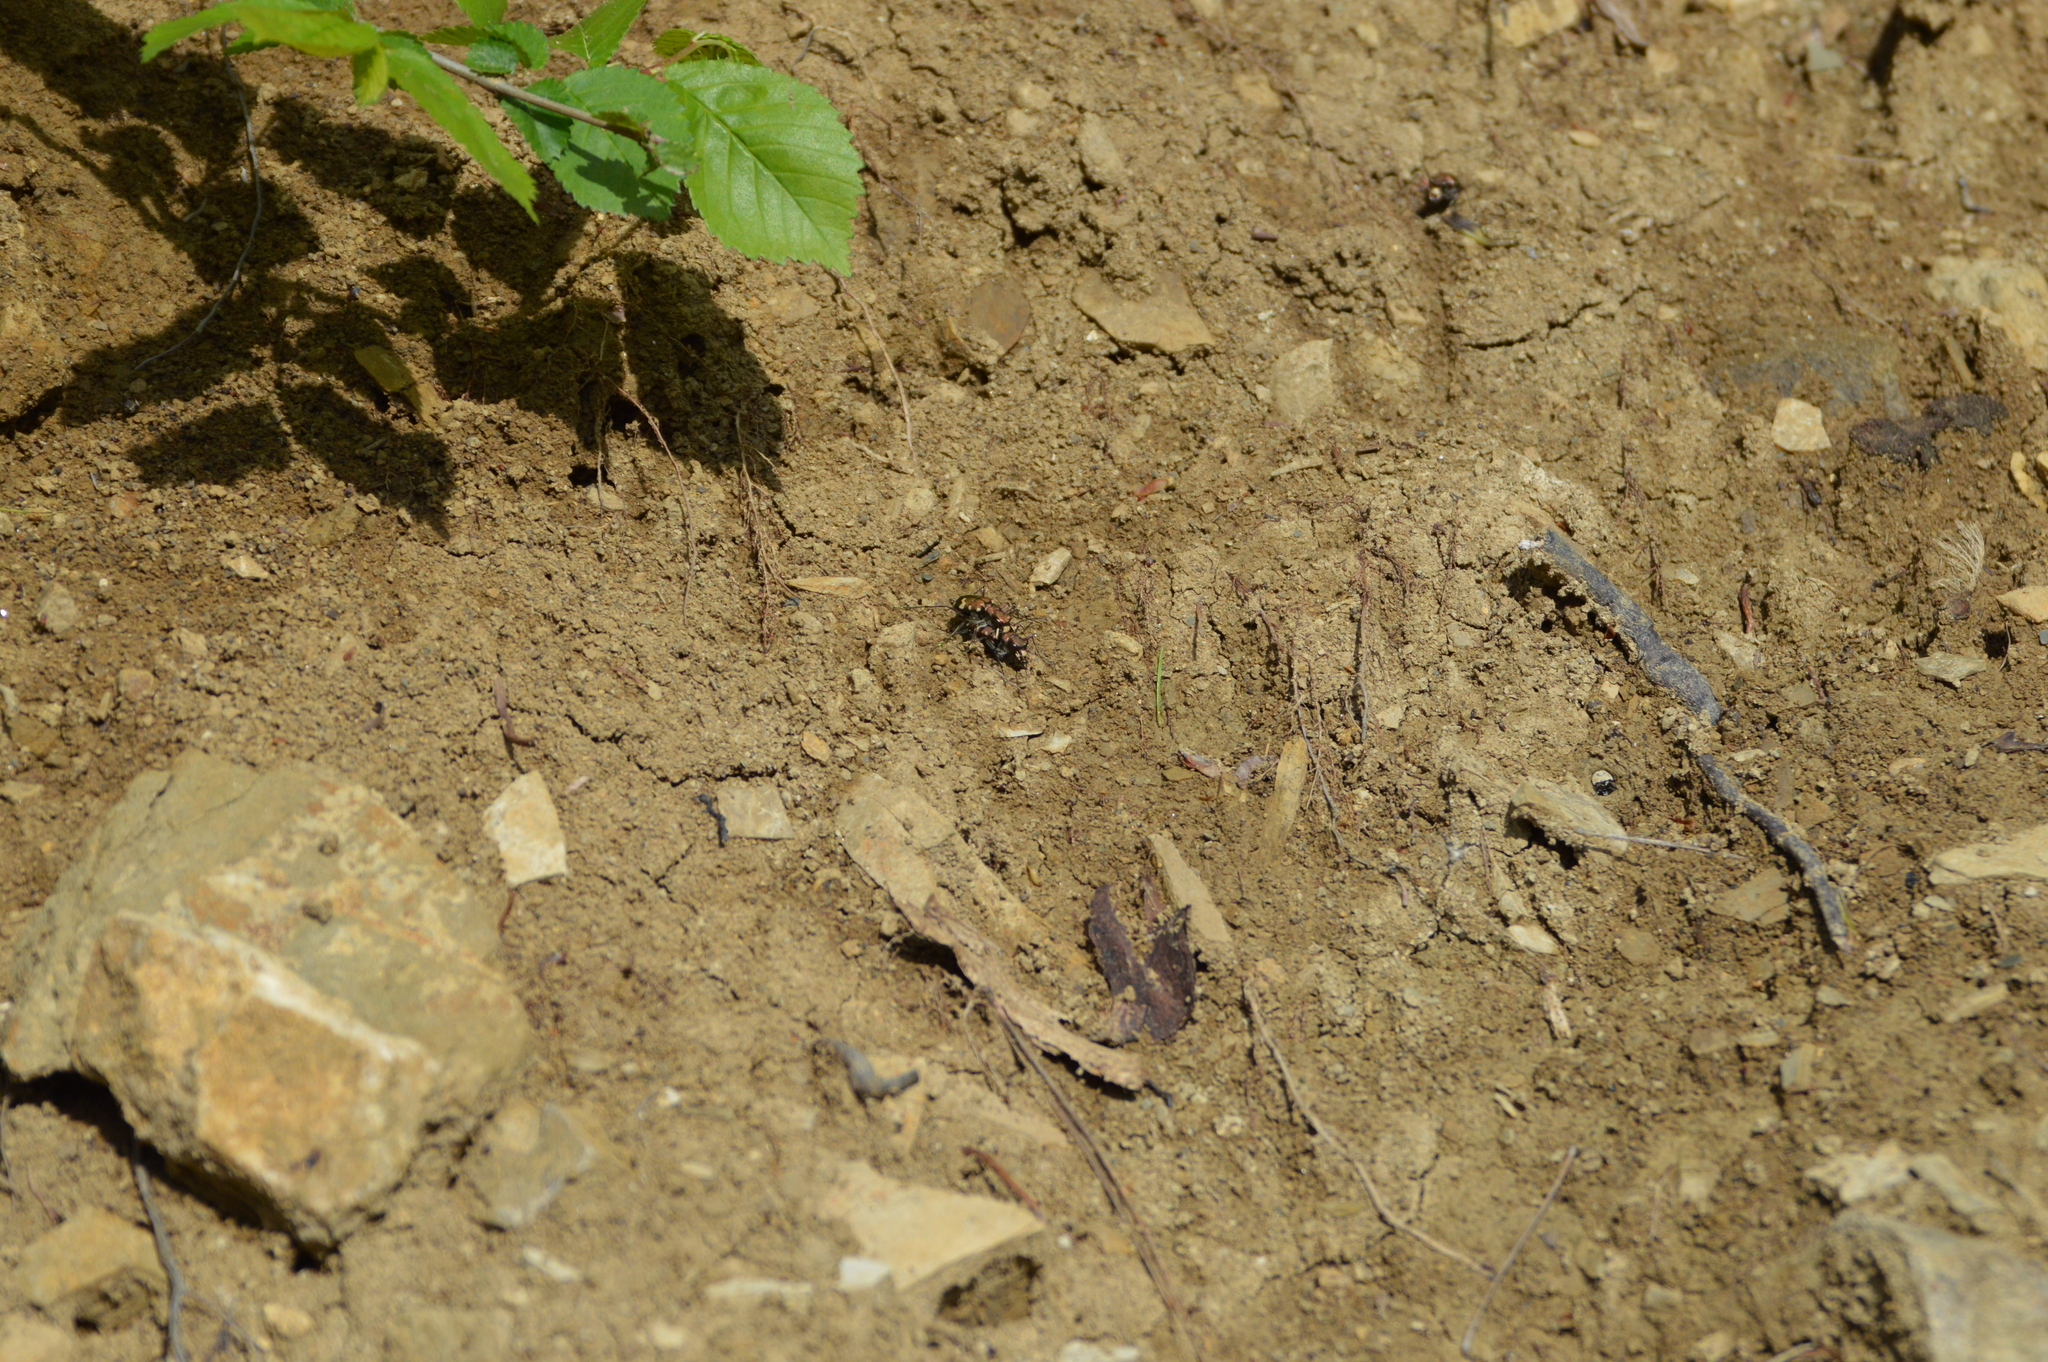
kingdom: Animalia
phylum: Arthropoda
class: Insecta
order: Coleoptera
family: Carabidae
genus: Cicindela
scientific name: Cicindela sylvicola
